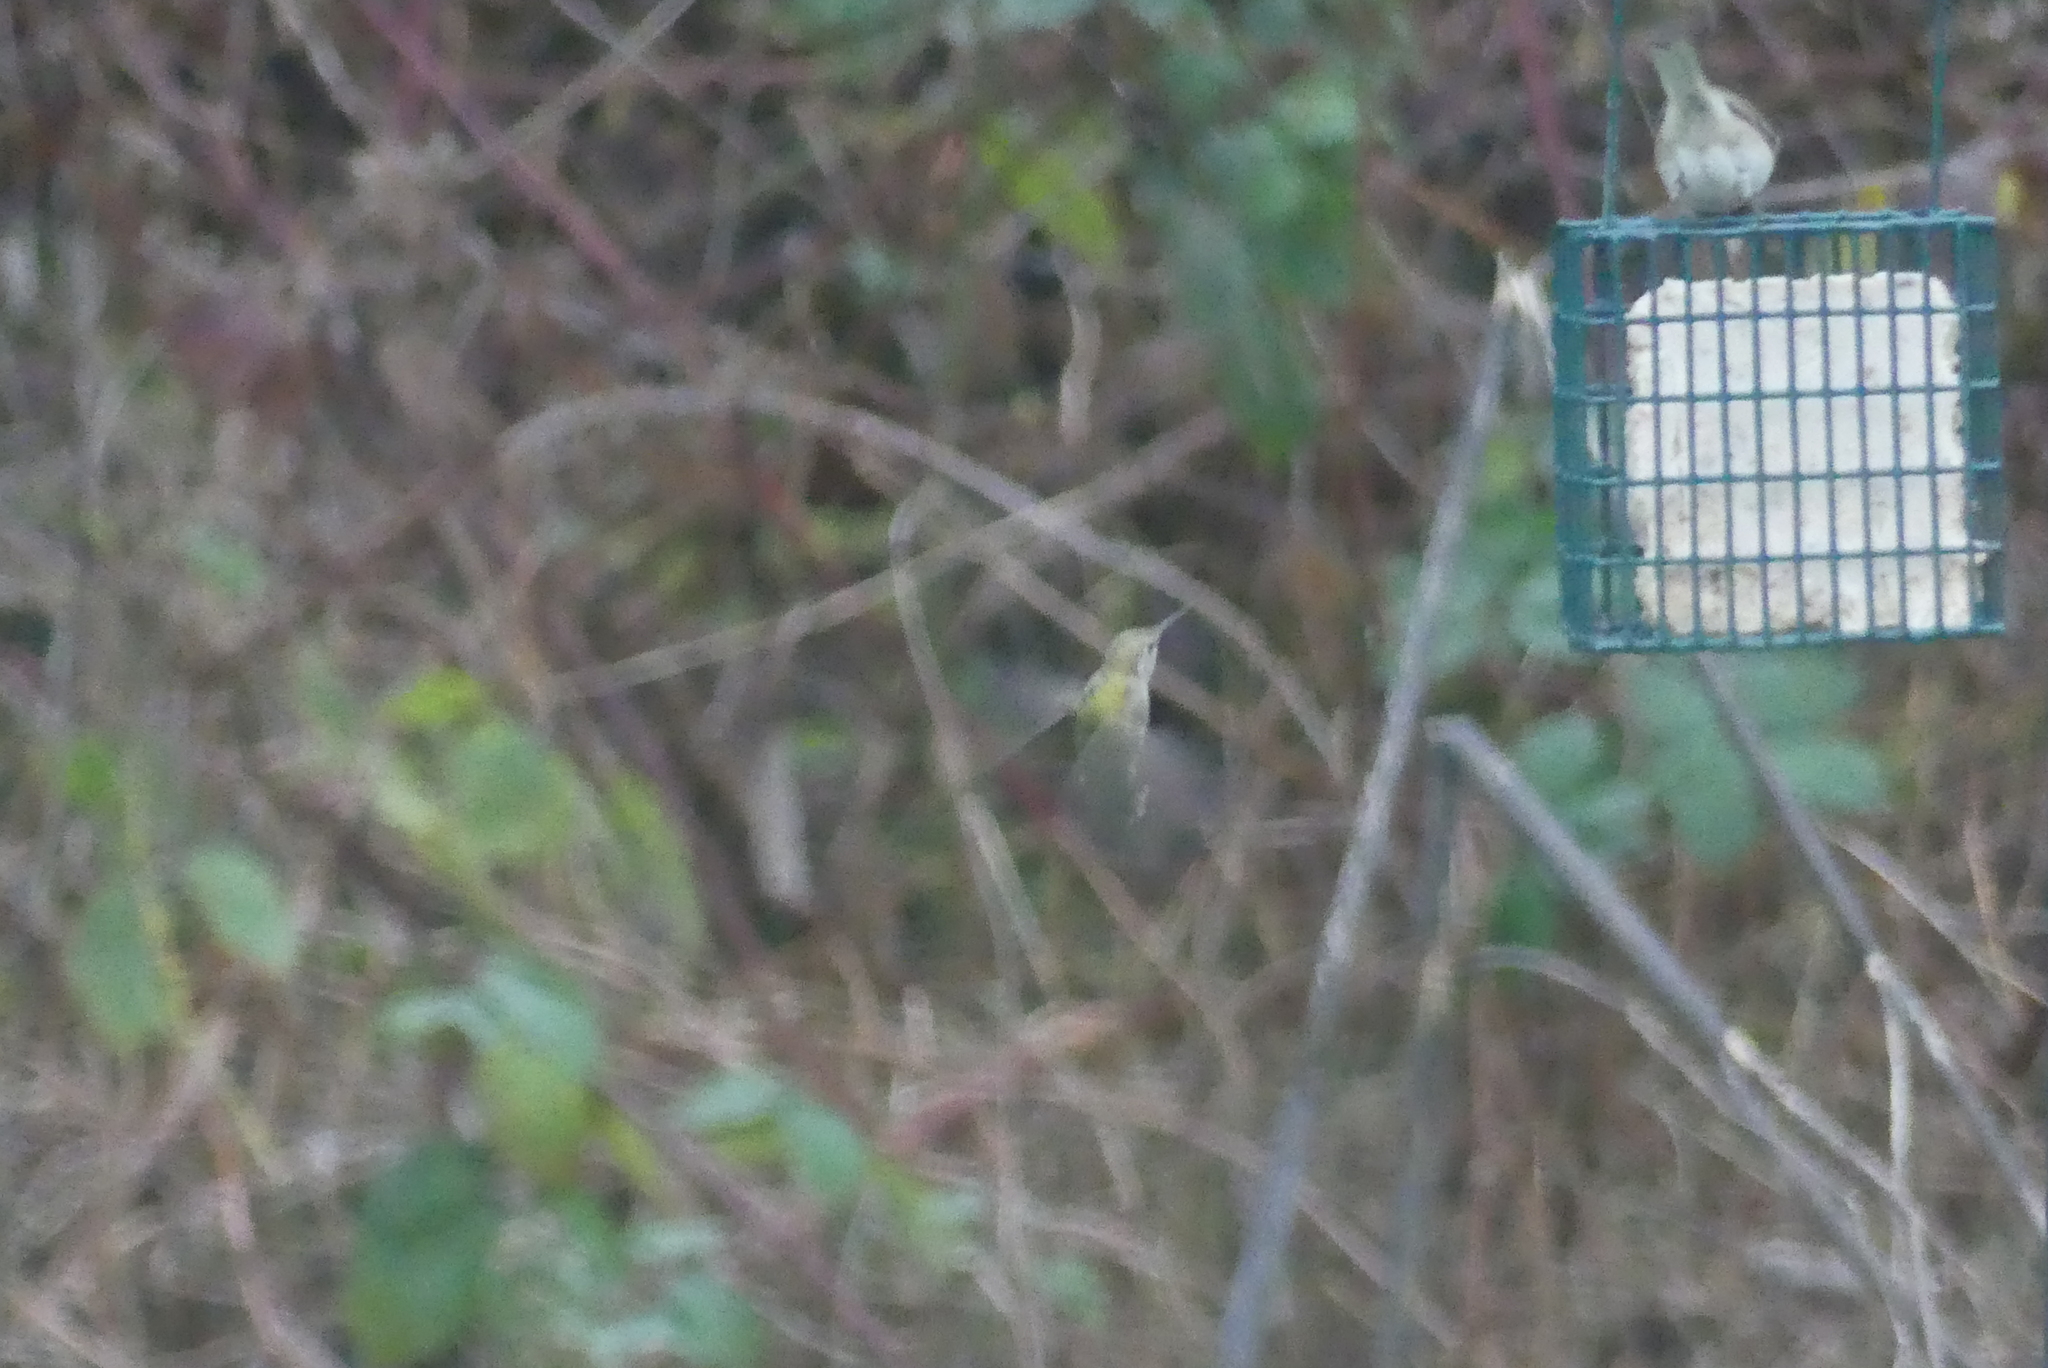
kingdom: Animalia
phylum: Chordata
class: Aves
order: Apodiformes
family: Trochilidae
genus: Calypte
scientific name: Calypte anna
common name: Anna's hummingbird
